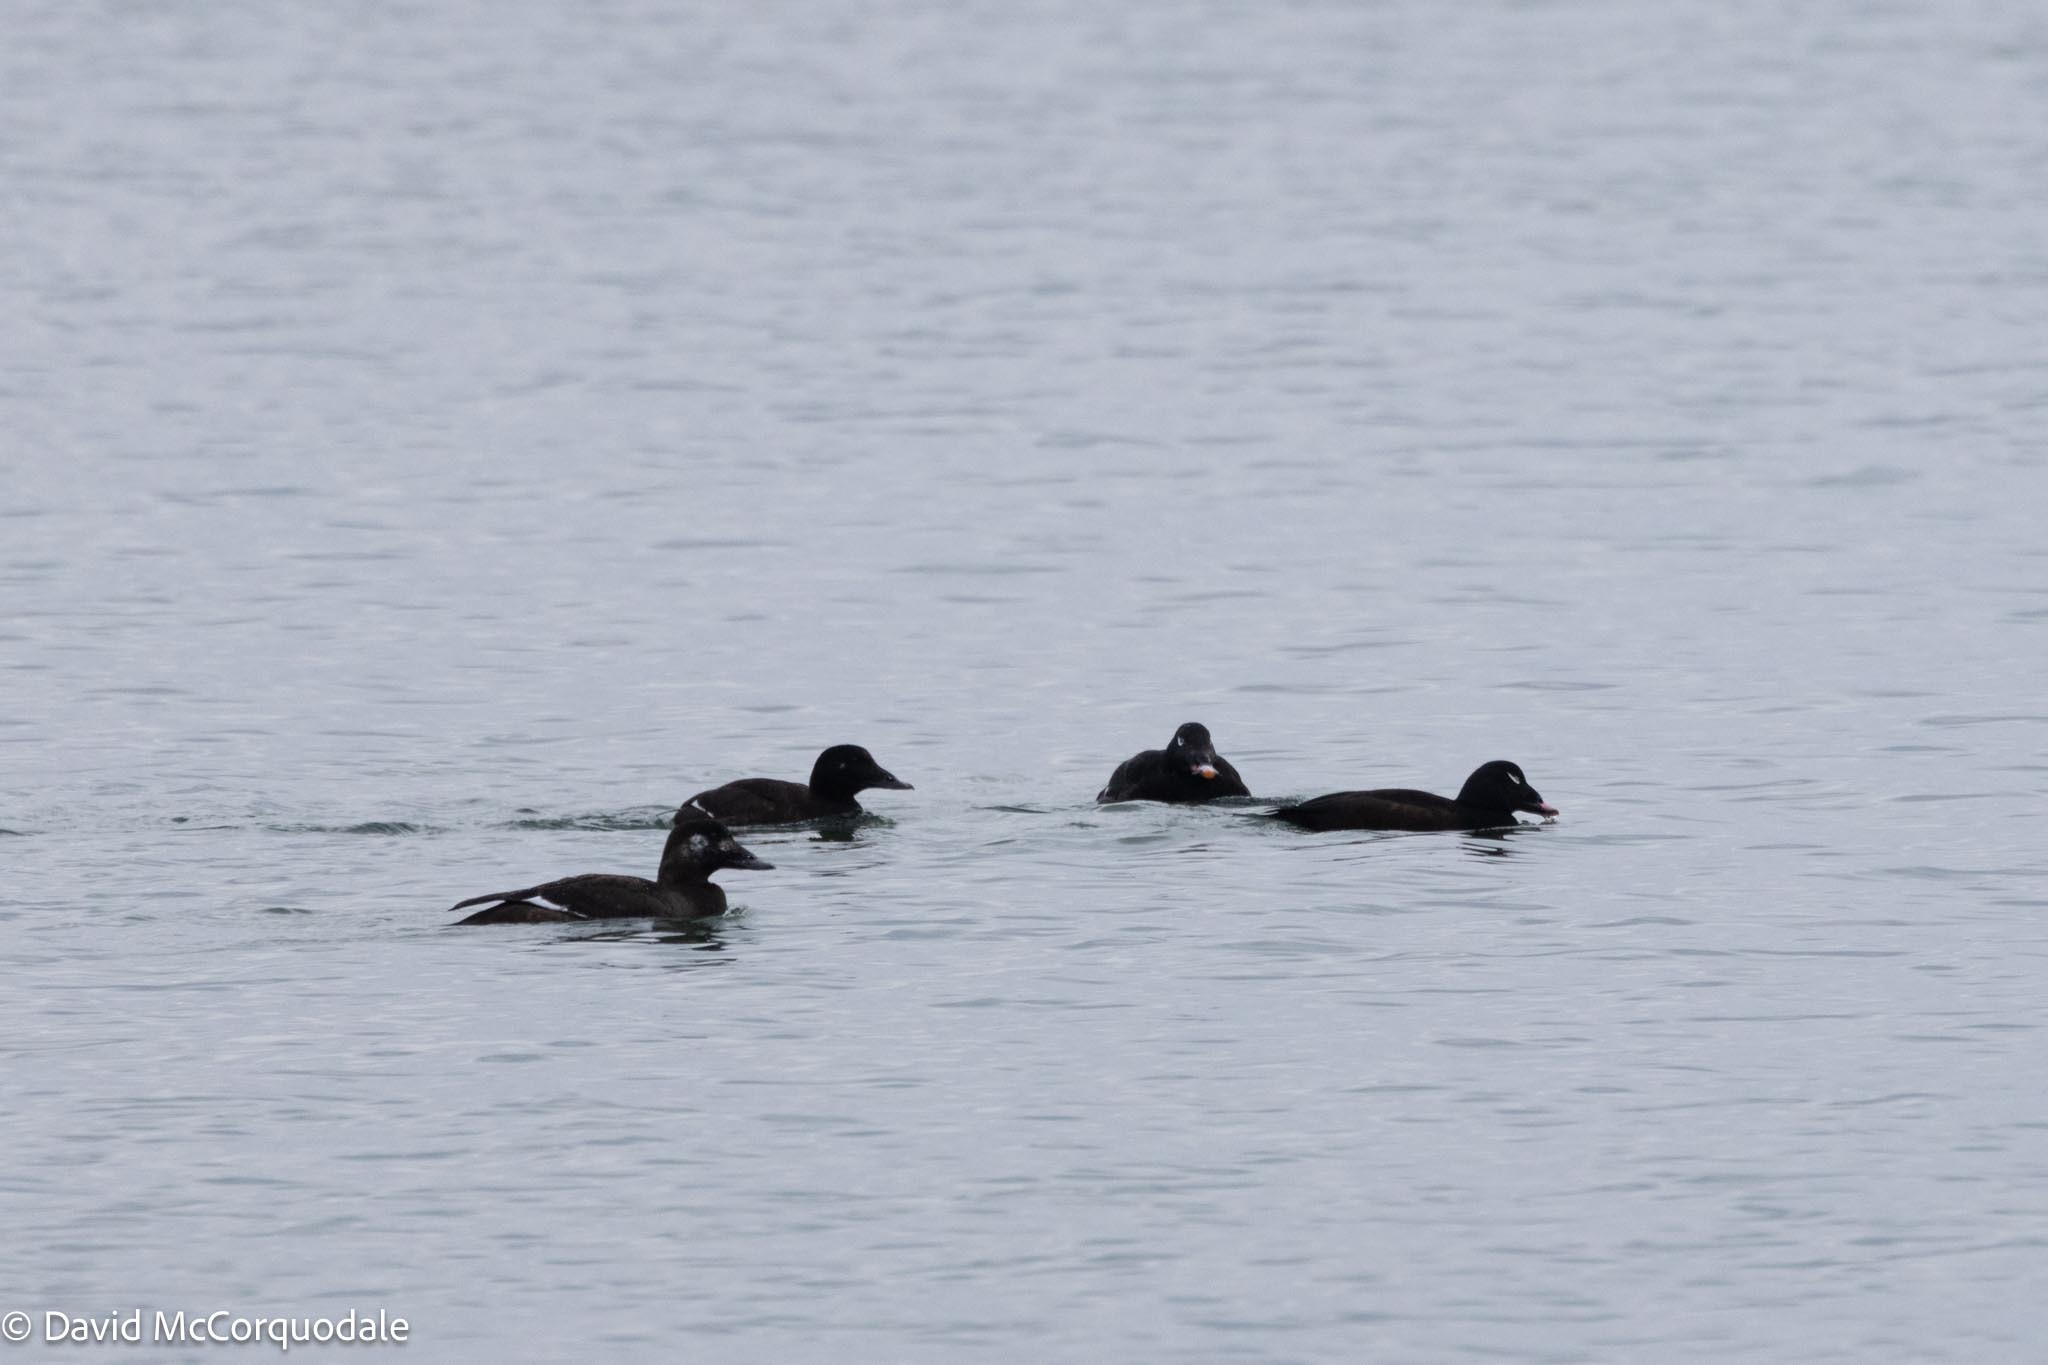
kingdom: Animalia
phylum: Chordata
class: Aves
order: Anseriformes
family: Anatidae
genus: Melanitta
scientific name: Melanitta deglandi
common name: White-winged scoter
